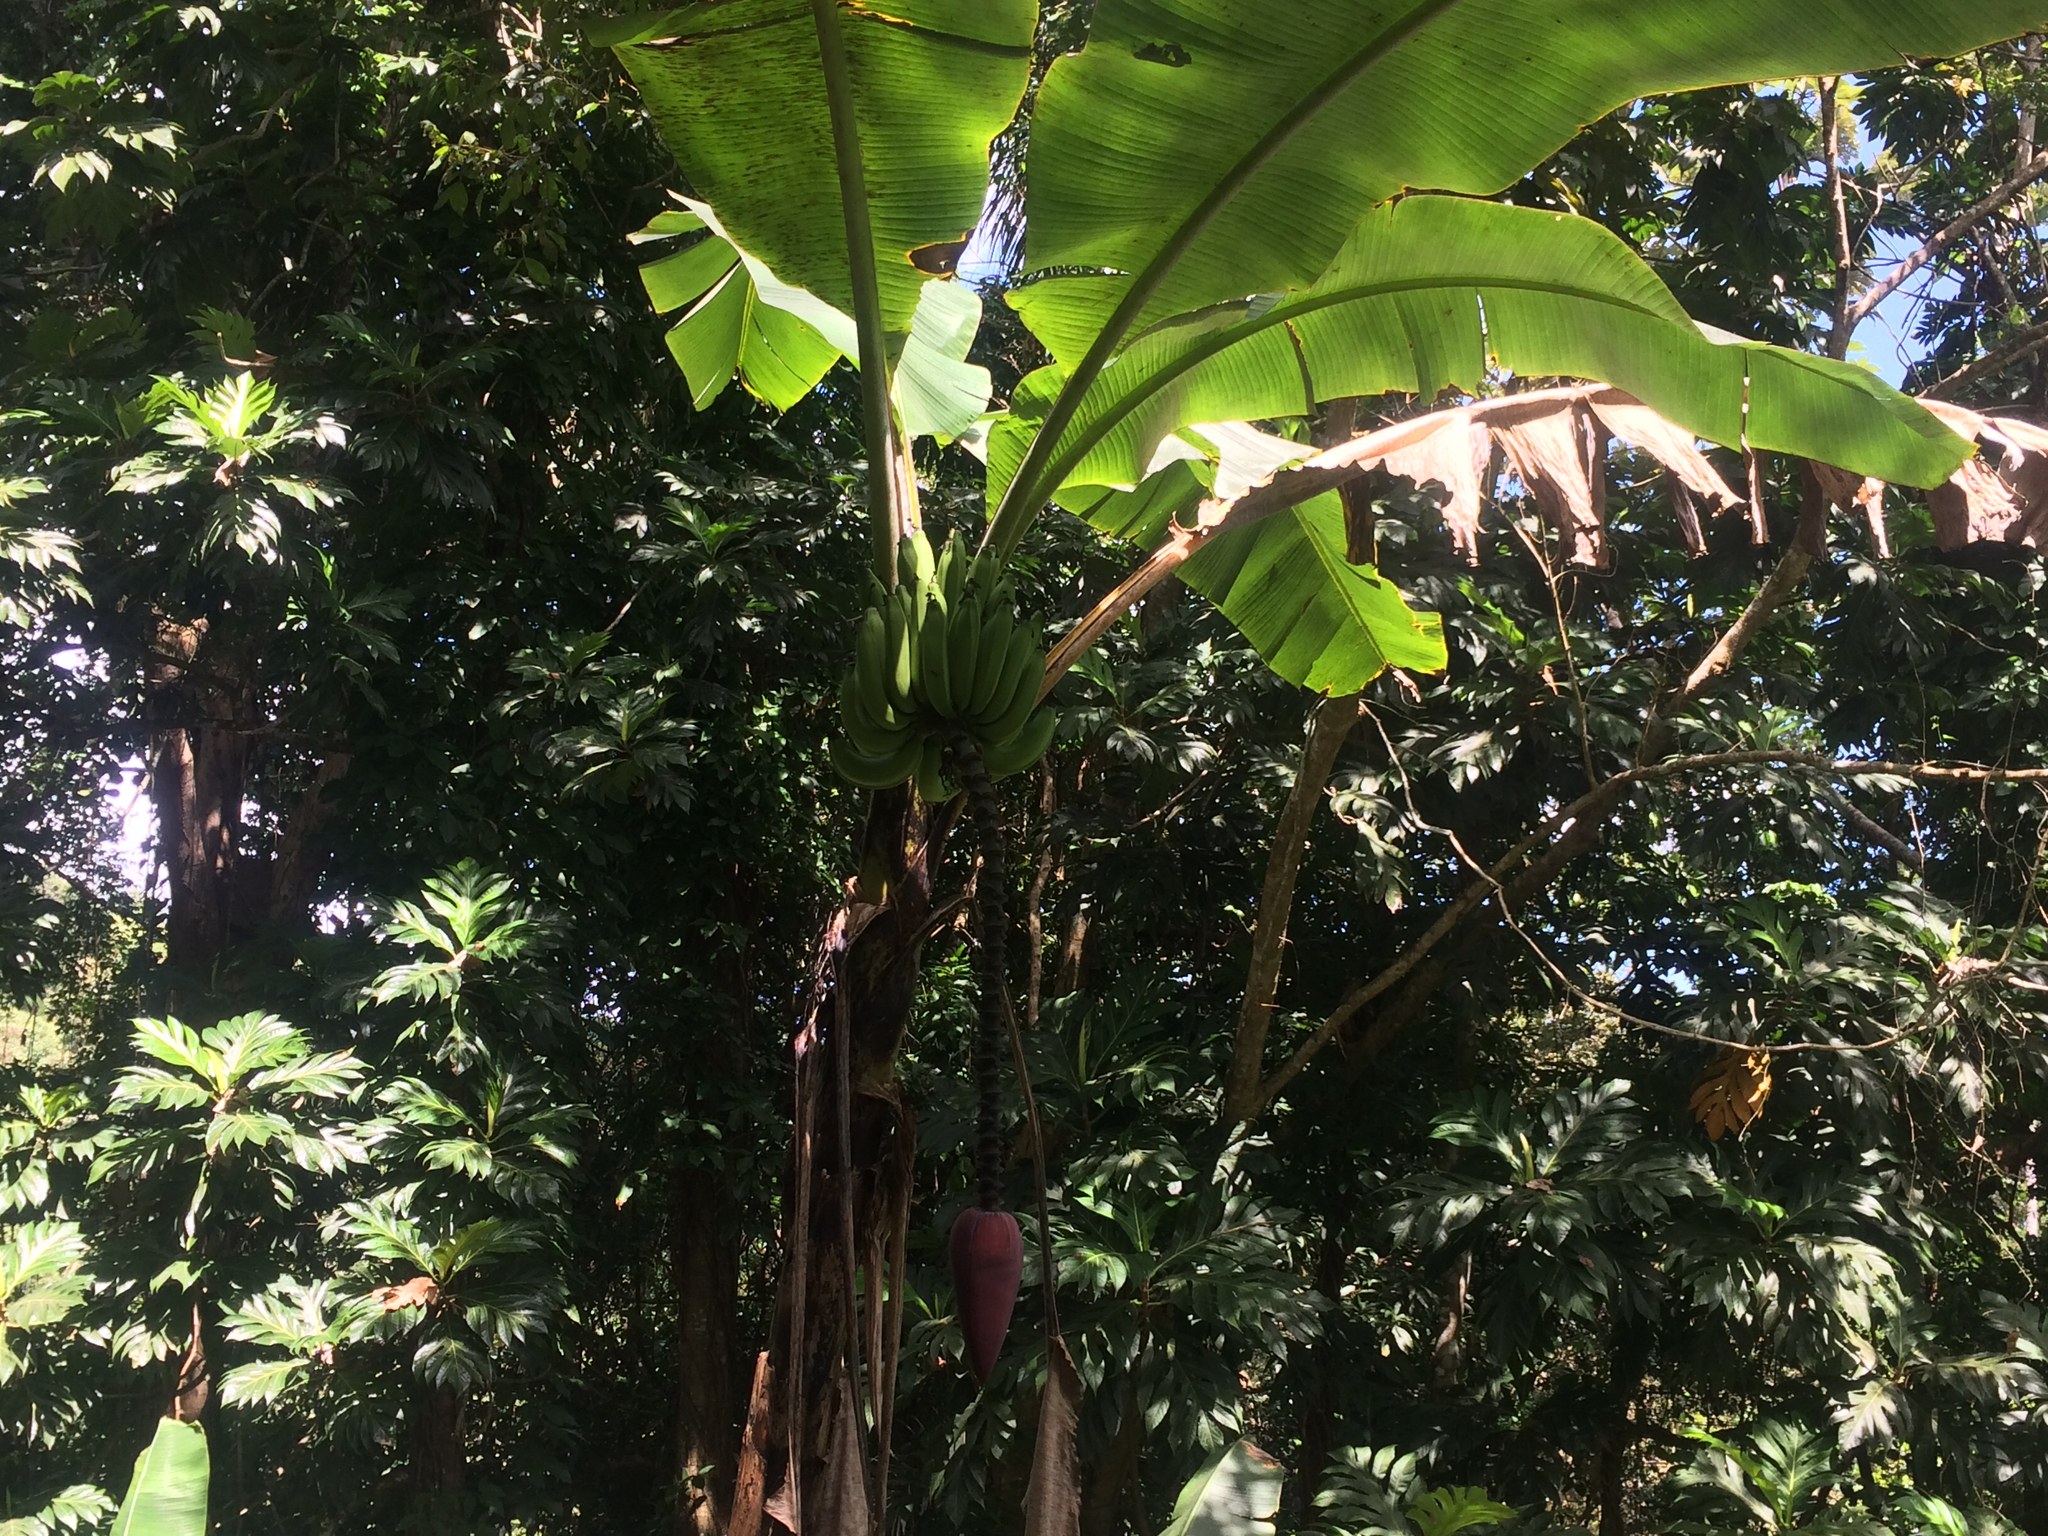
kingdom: Plantae
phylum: Tracheophyta
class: Liliopsida
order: Zingiberales
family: Musaceae
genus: Musa
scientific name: Musa paradisiaca
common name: French plantain
